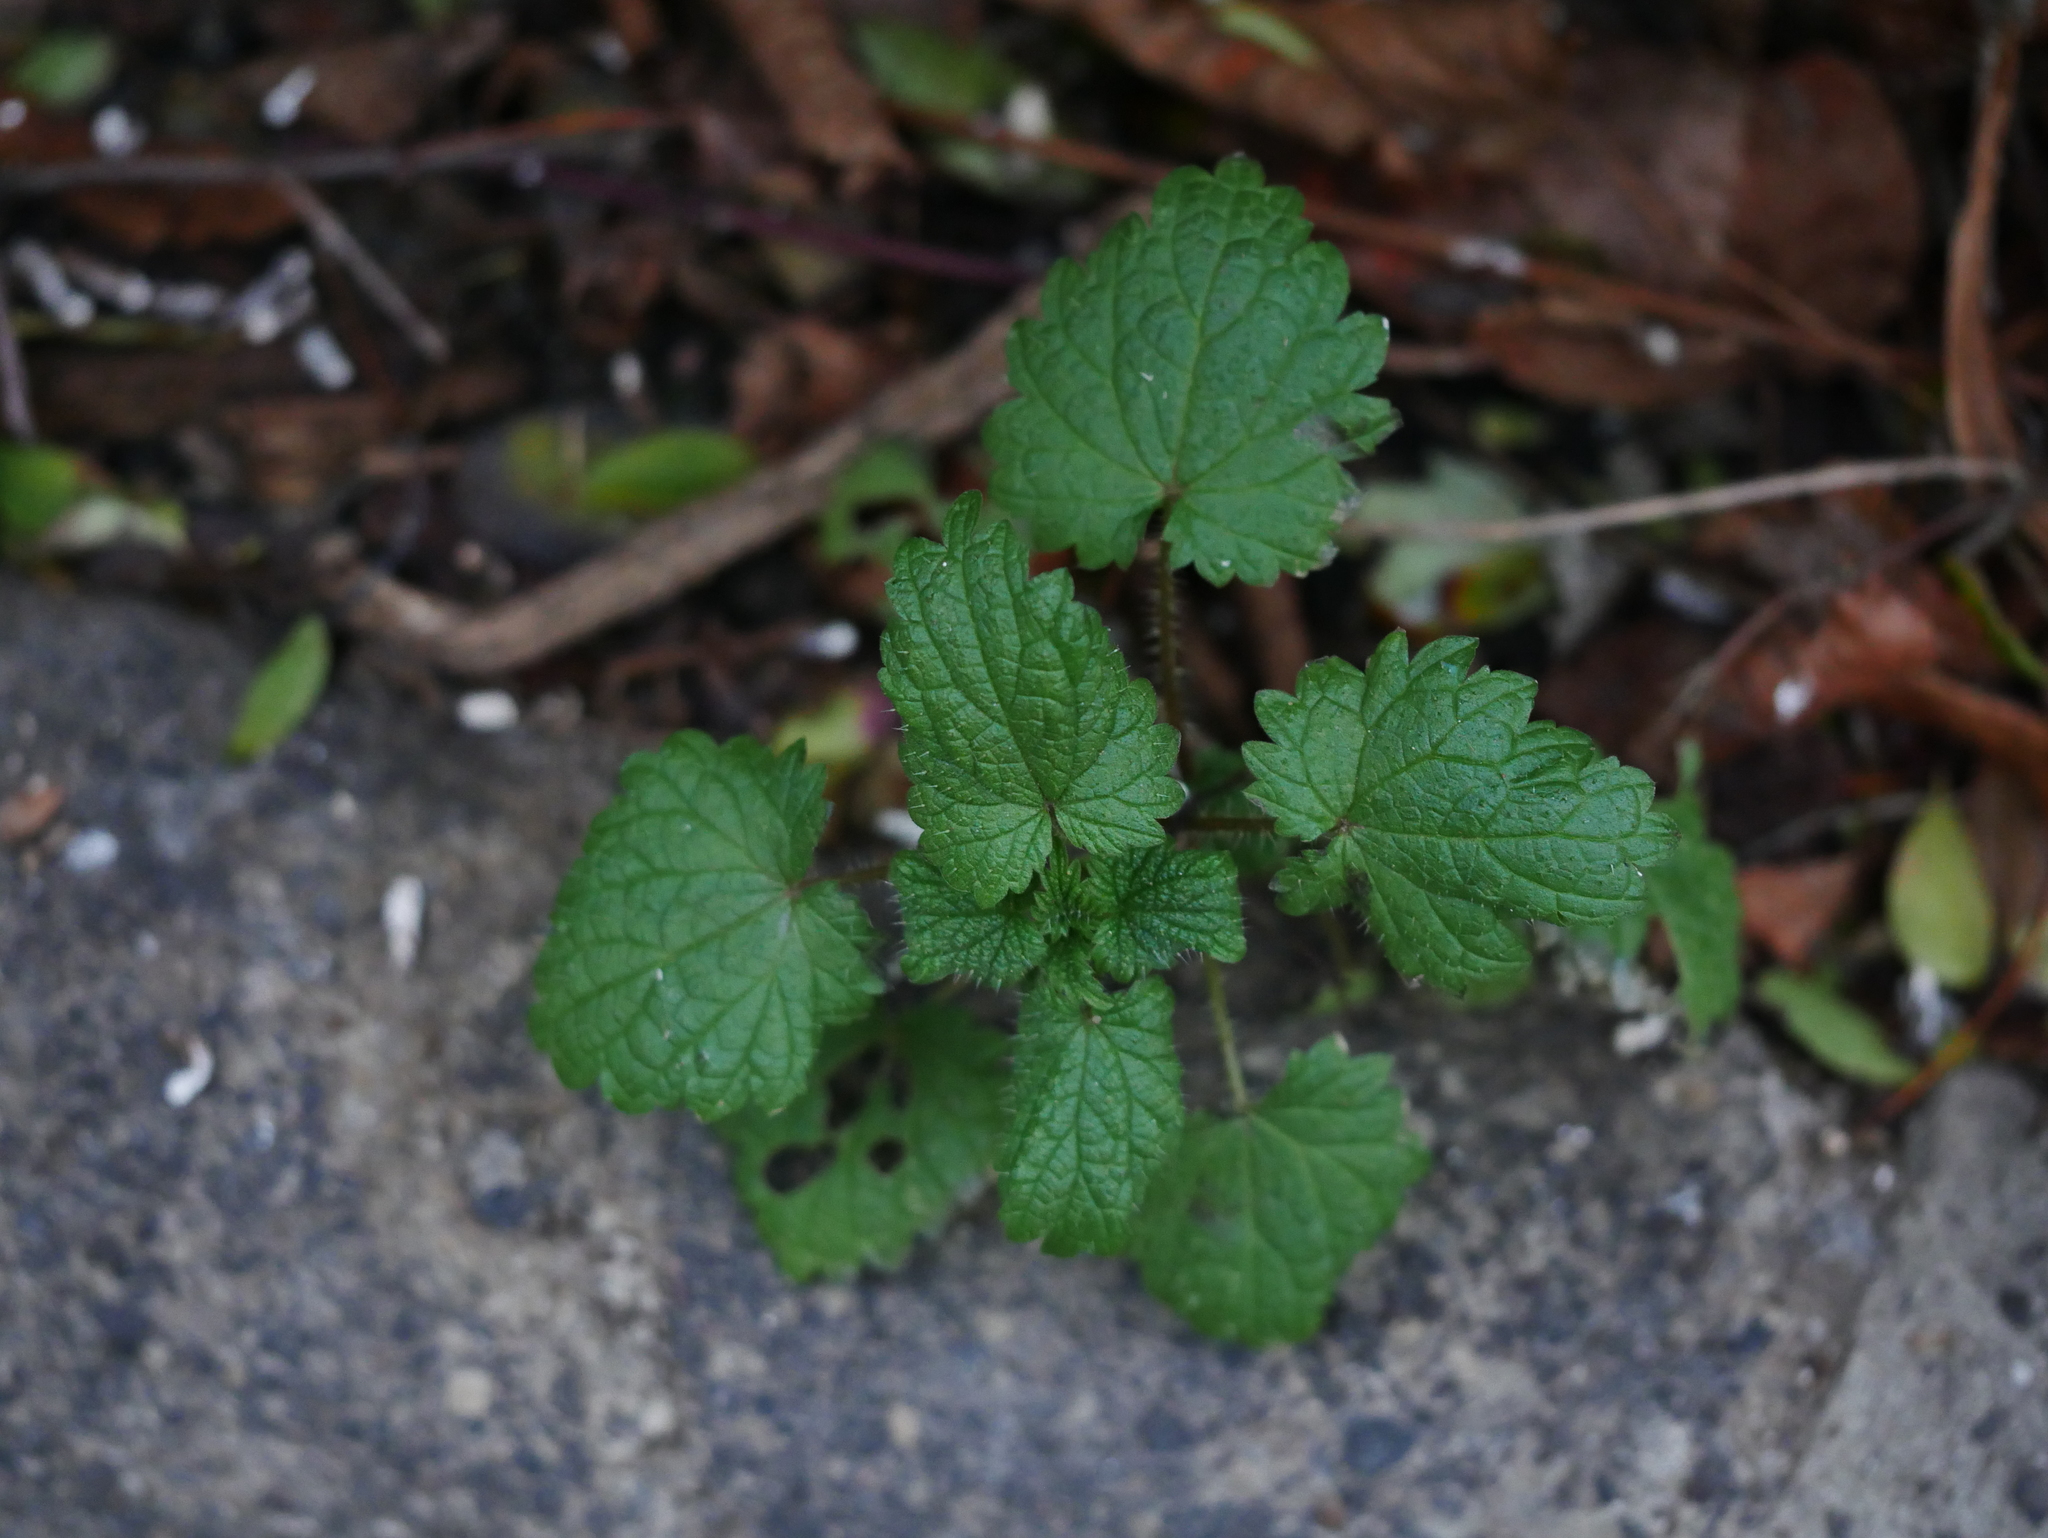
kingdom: Plantae
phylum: Tracheophyta
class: Magnoliopsida
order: Rosales
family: Urticaceae
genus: Urtica
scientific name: Urtica dioica
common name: Common nettle
